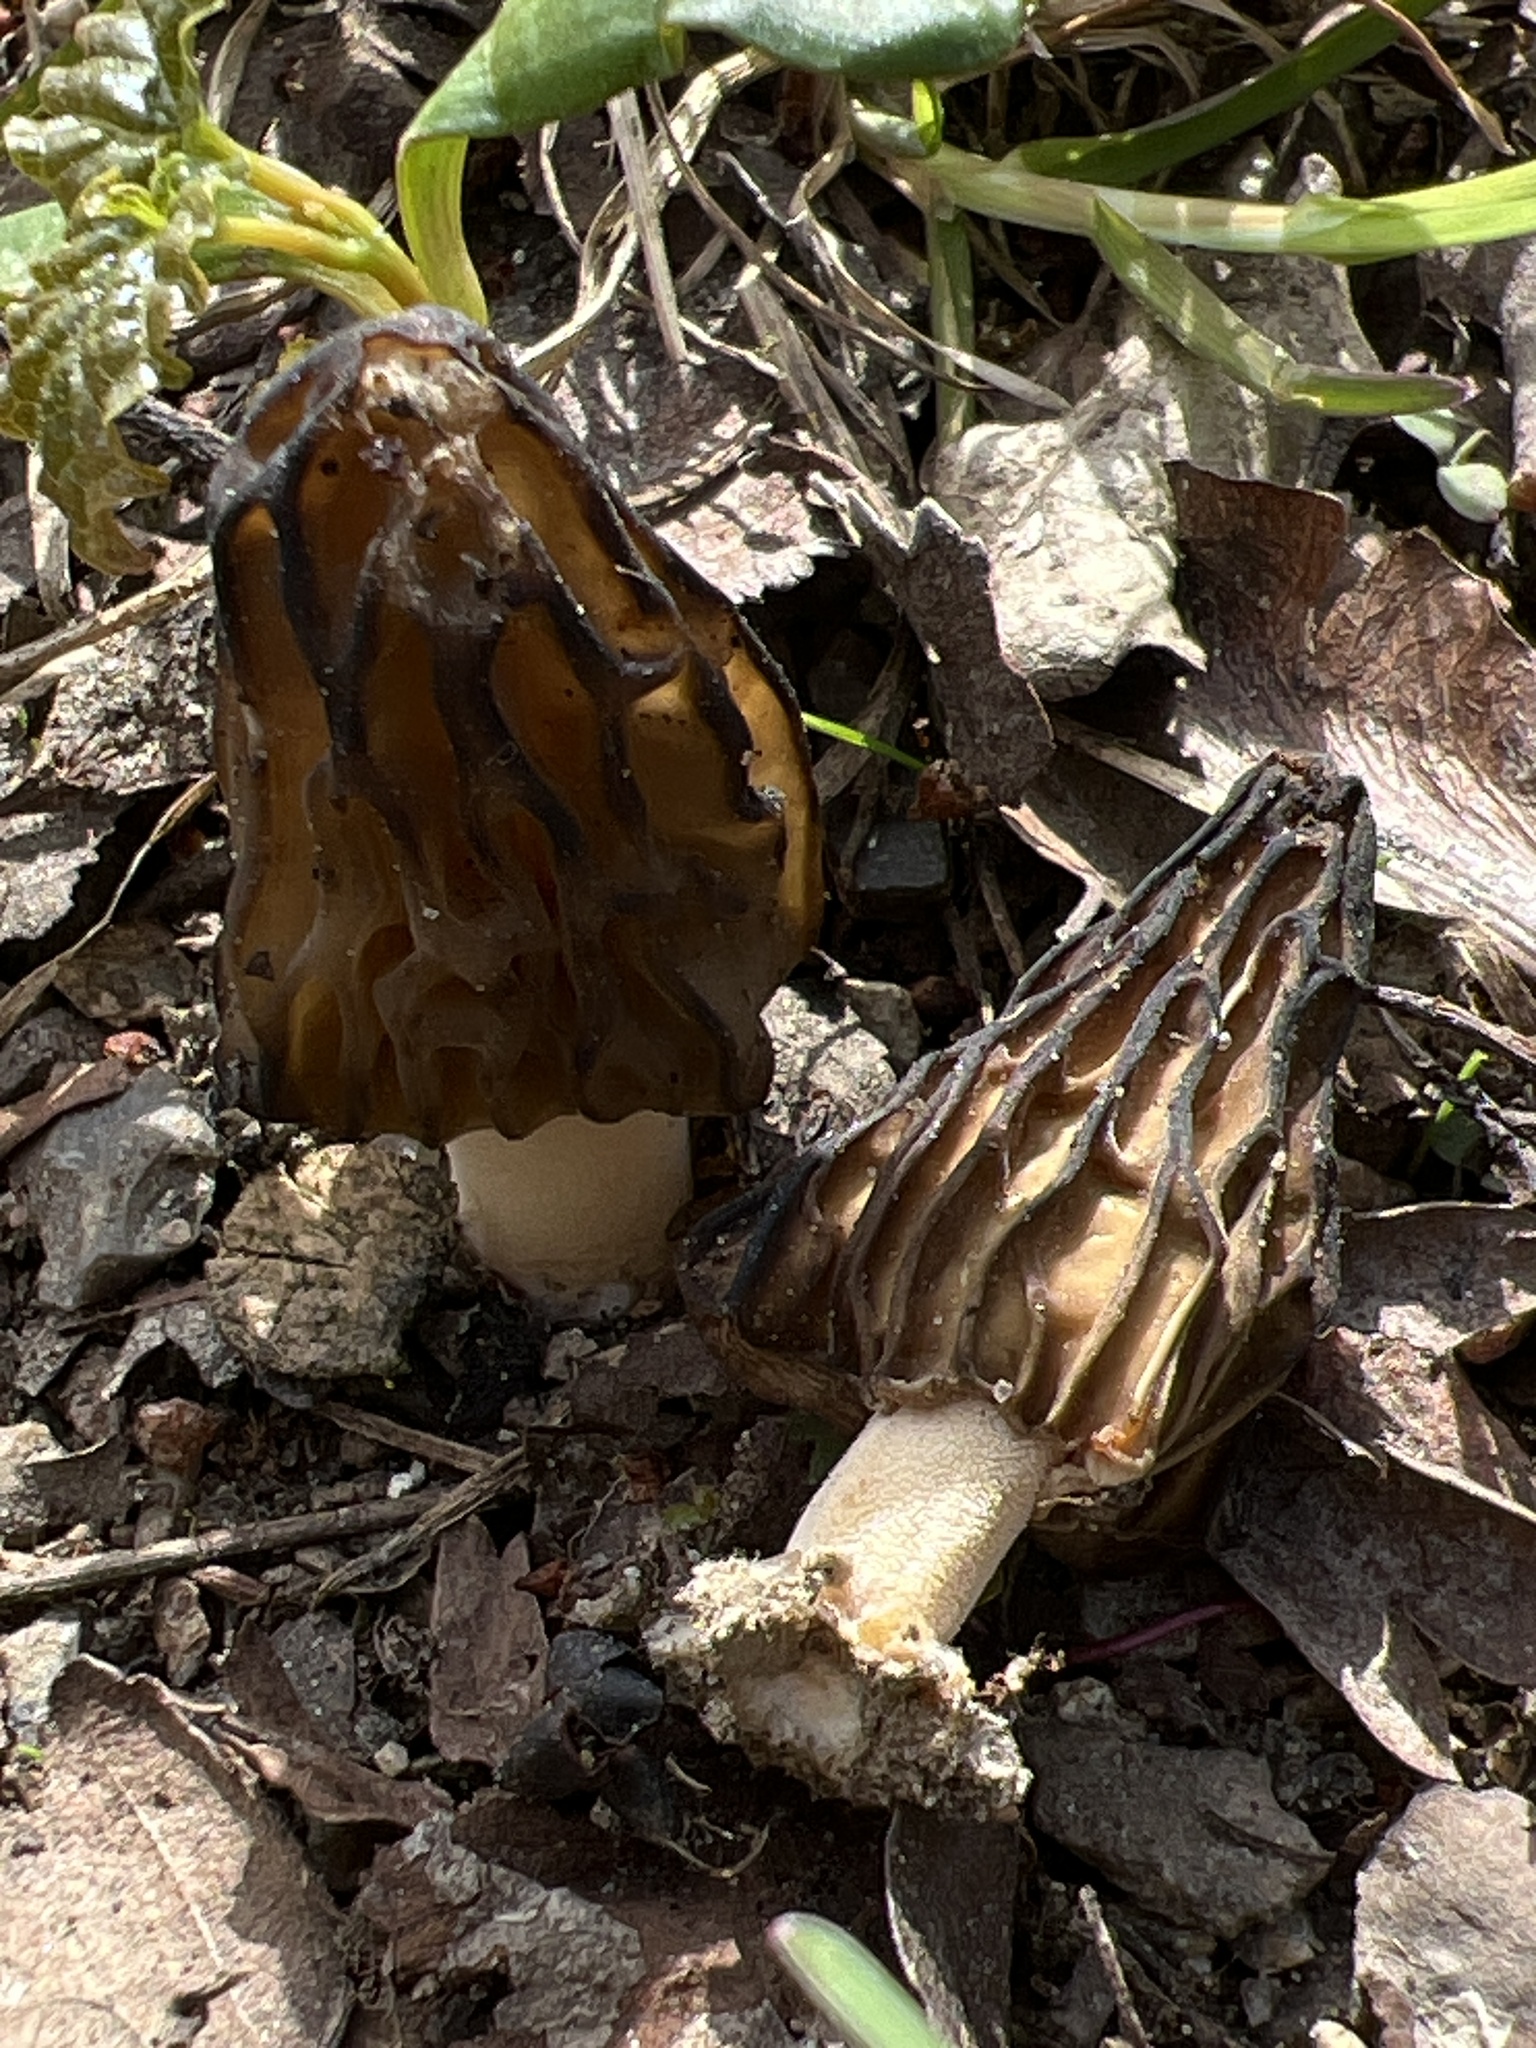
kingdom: Fungi
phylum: Ascomycota
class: Pezizomycetes
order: Pezizales
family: Morchellaceae
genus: Morchella
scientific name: Morchella semilibera
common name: Semifree morel
